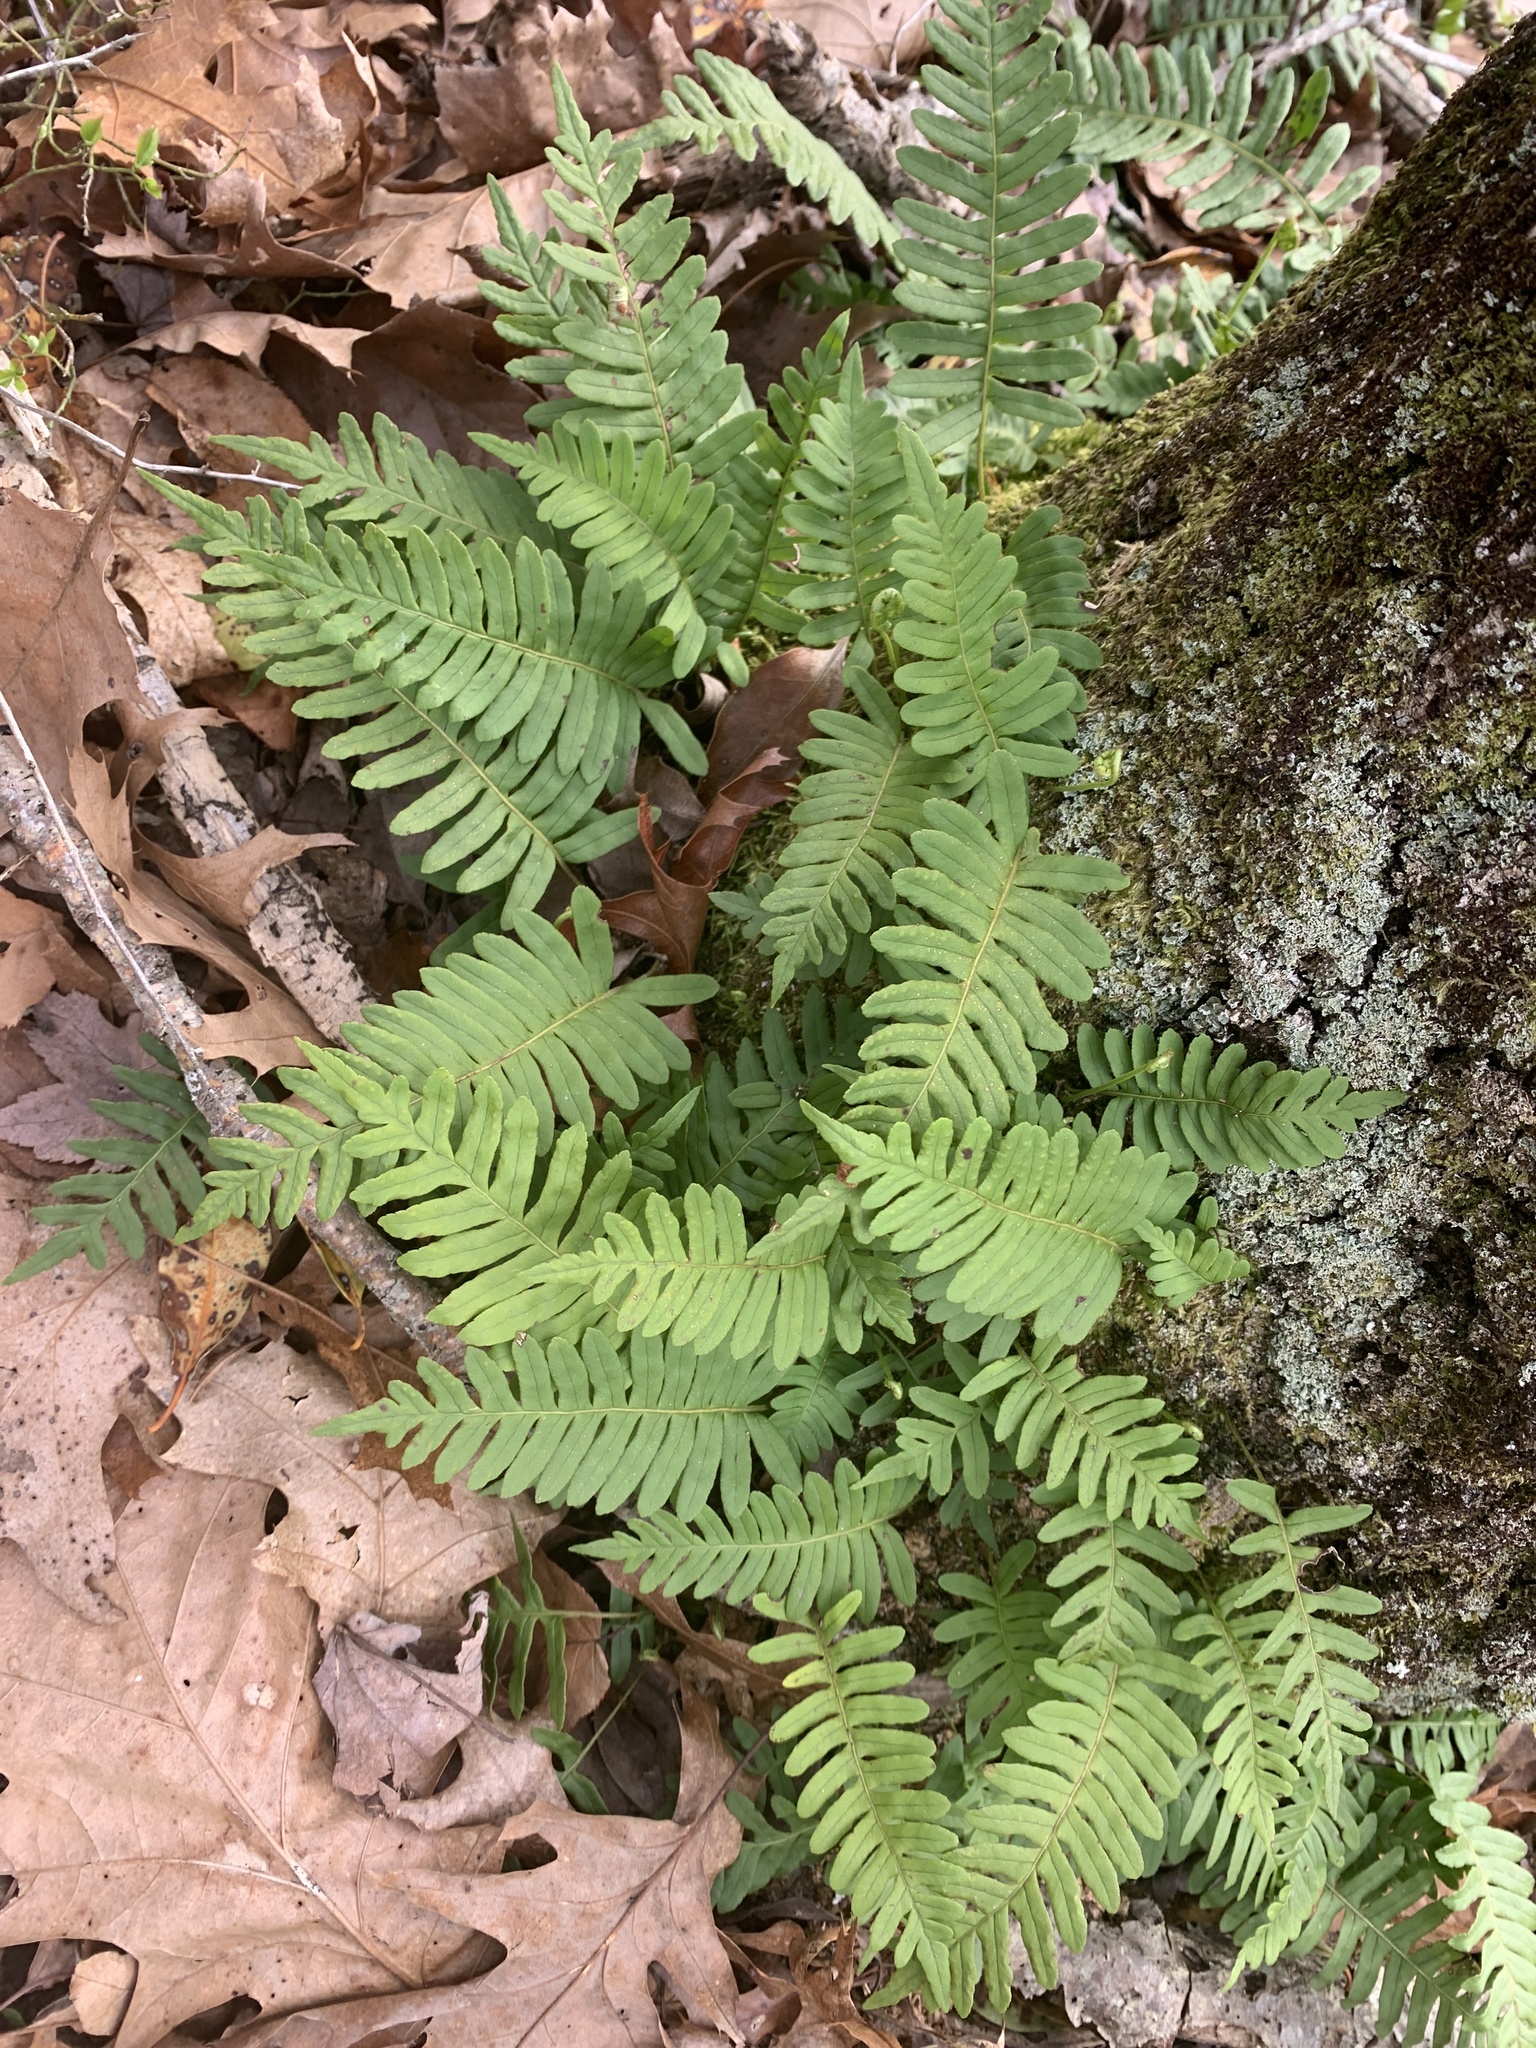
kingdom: Plantae
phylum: Tracheophyta
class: Polypodiopsida
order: Polypodiales
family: Polypodiaceae
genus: Polypodium
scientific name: Polypodium virginianum
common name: American wall fern
